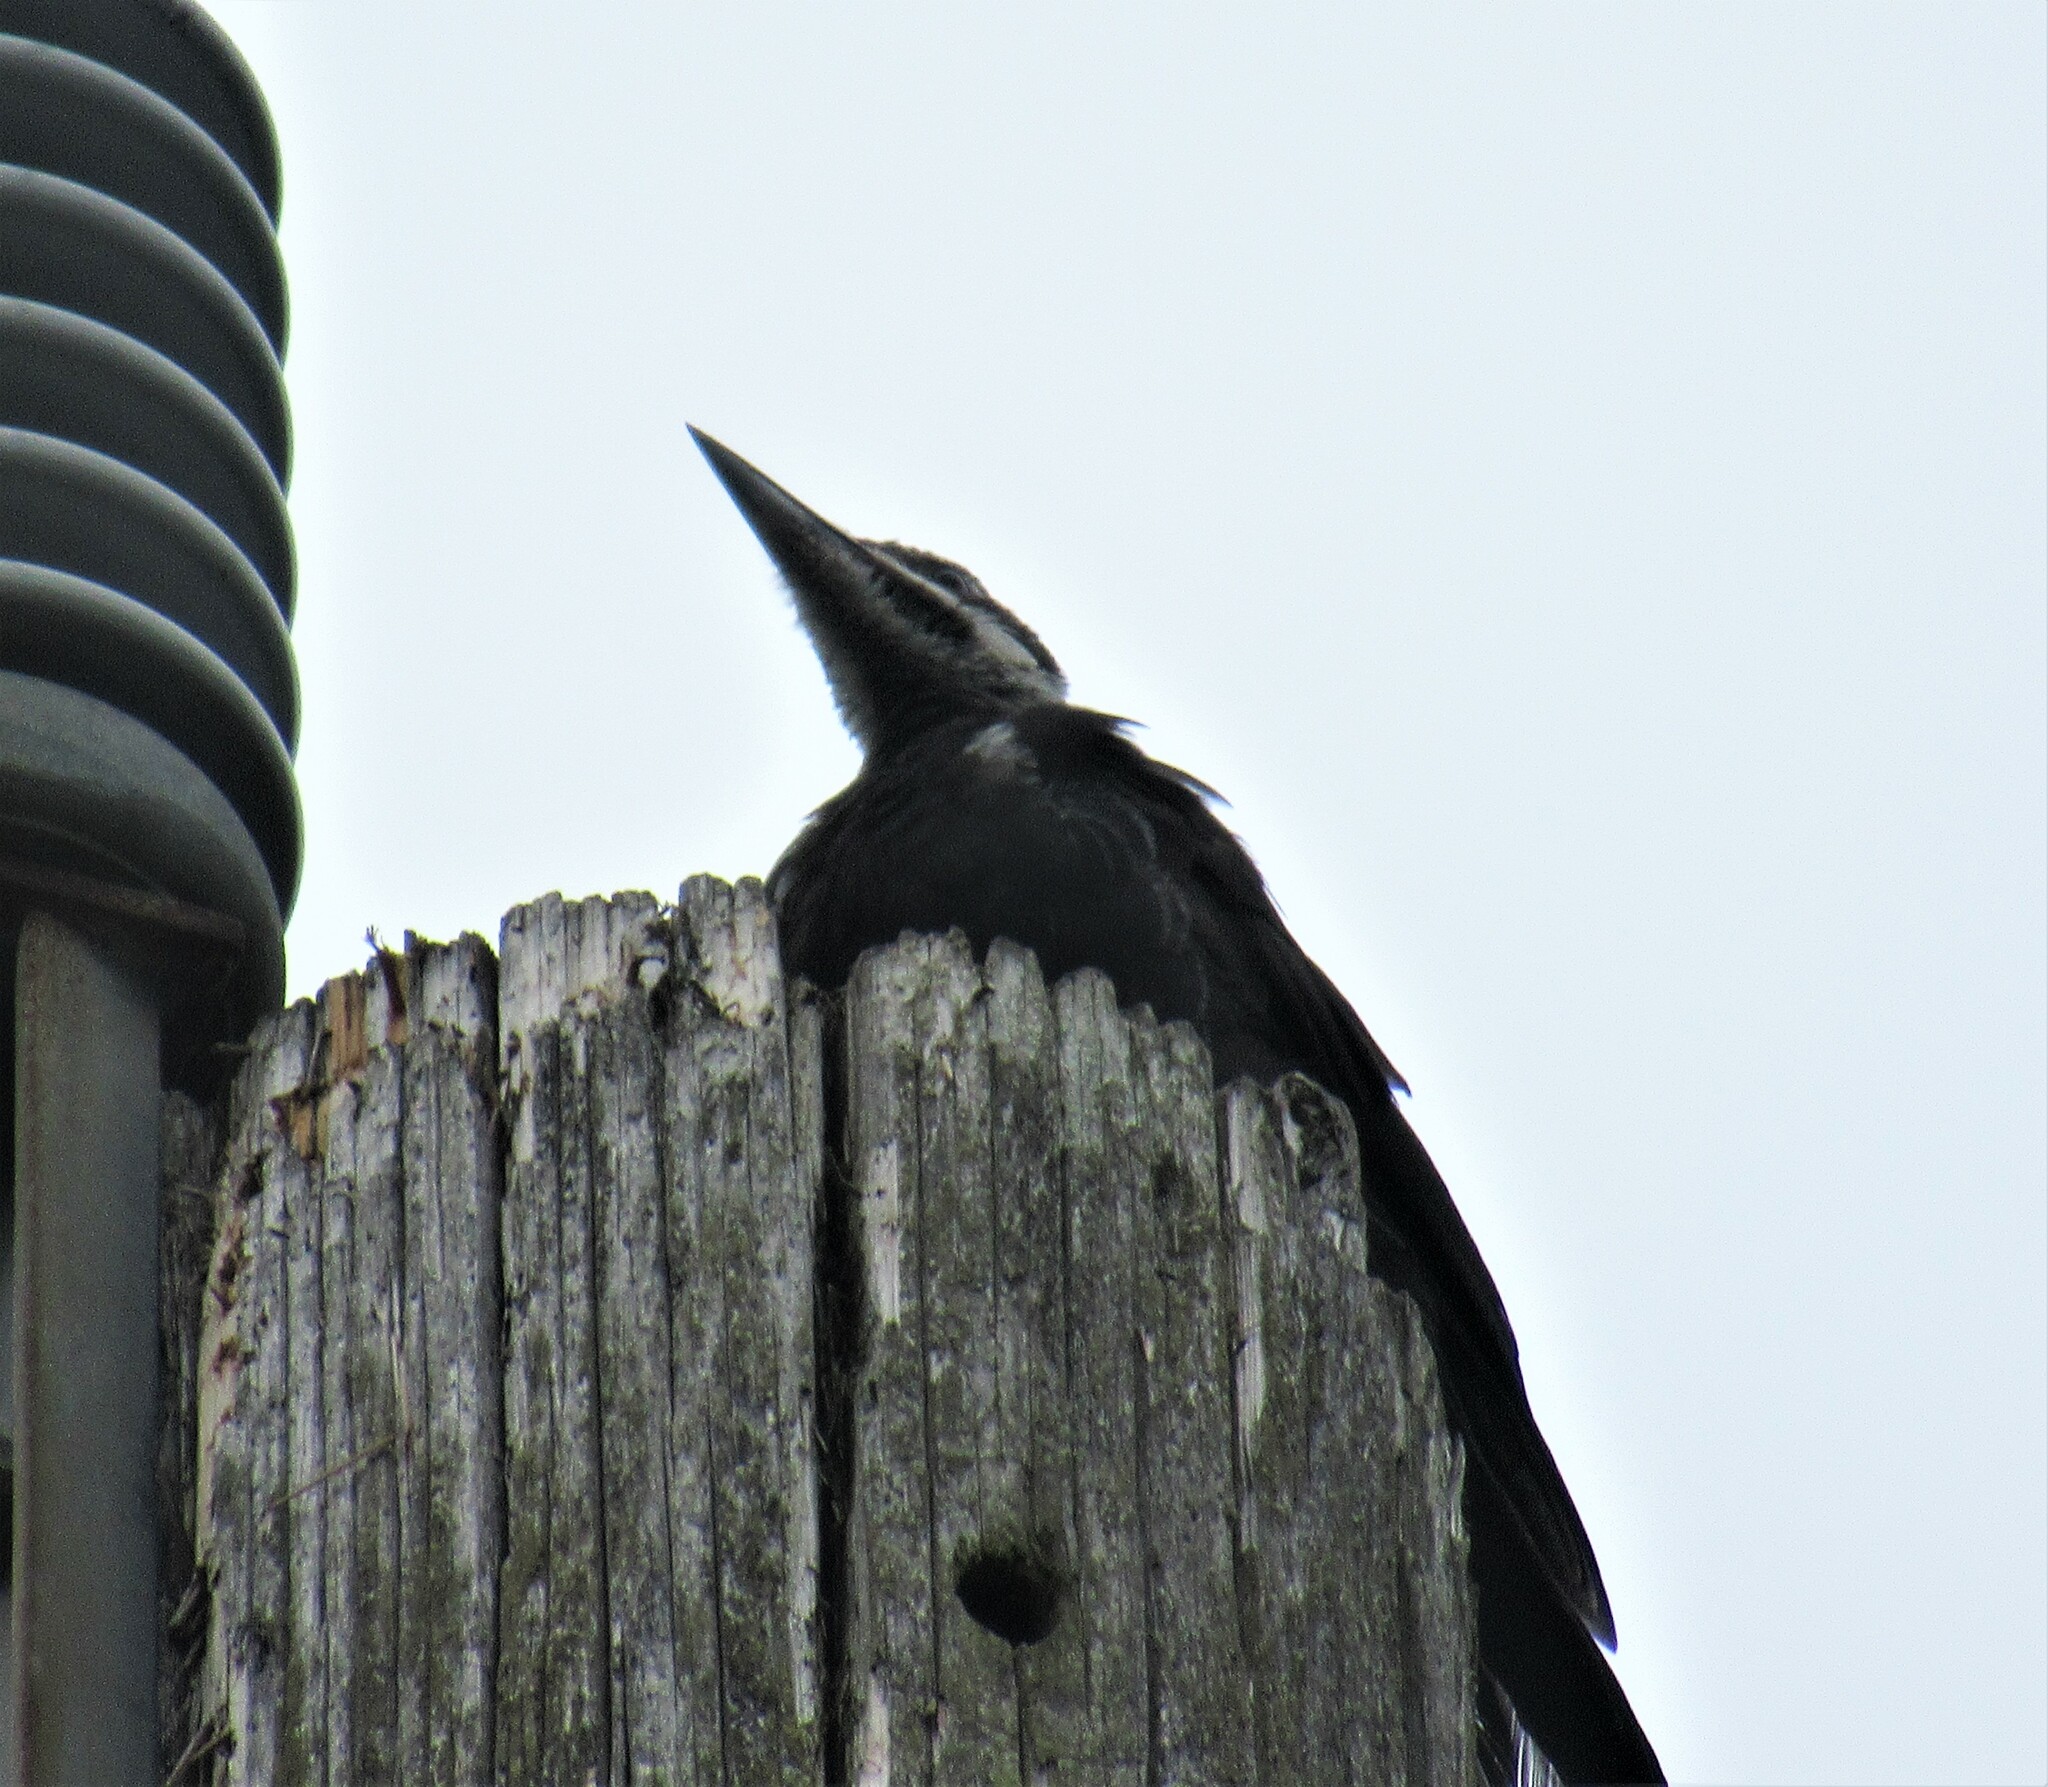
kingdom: Animalia
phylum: Chordata
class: Aves
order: Piciformes
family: Picidae
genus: Dryocopus
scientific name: Dryocopus pileatus
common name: Pileated woodpecker
